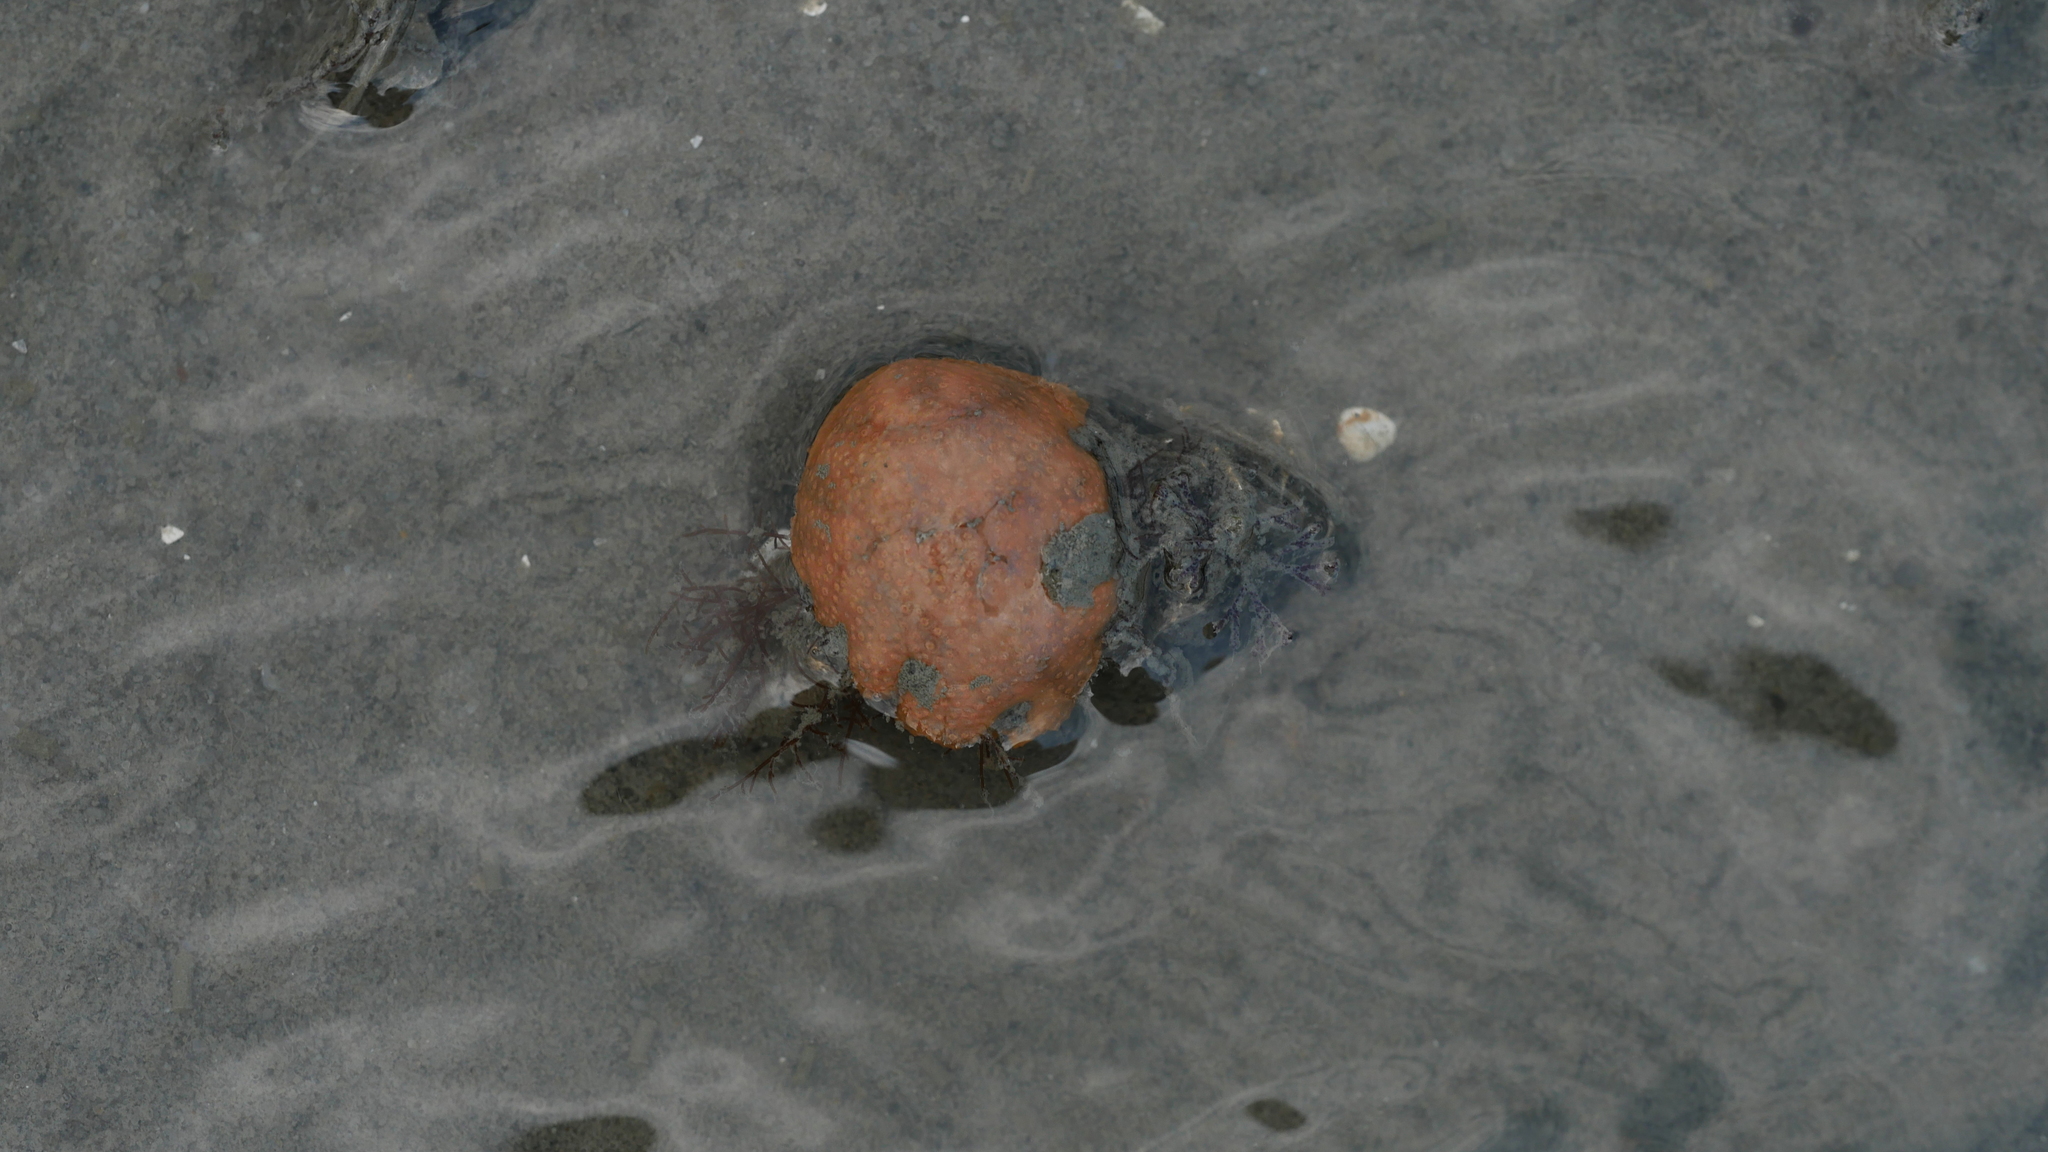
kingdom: Animalia
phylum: Chordata
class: Ascidiacea
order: Aplousobranchia
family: Polyclinidae
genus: Aplidium
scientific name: Aplidium stellatum
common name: Atlantic sea pork
